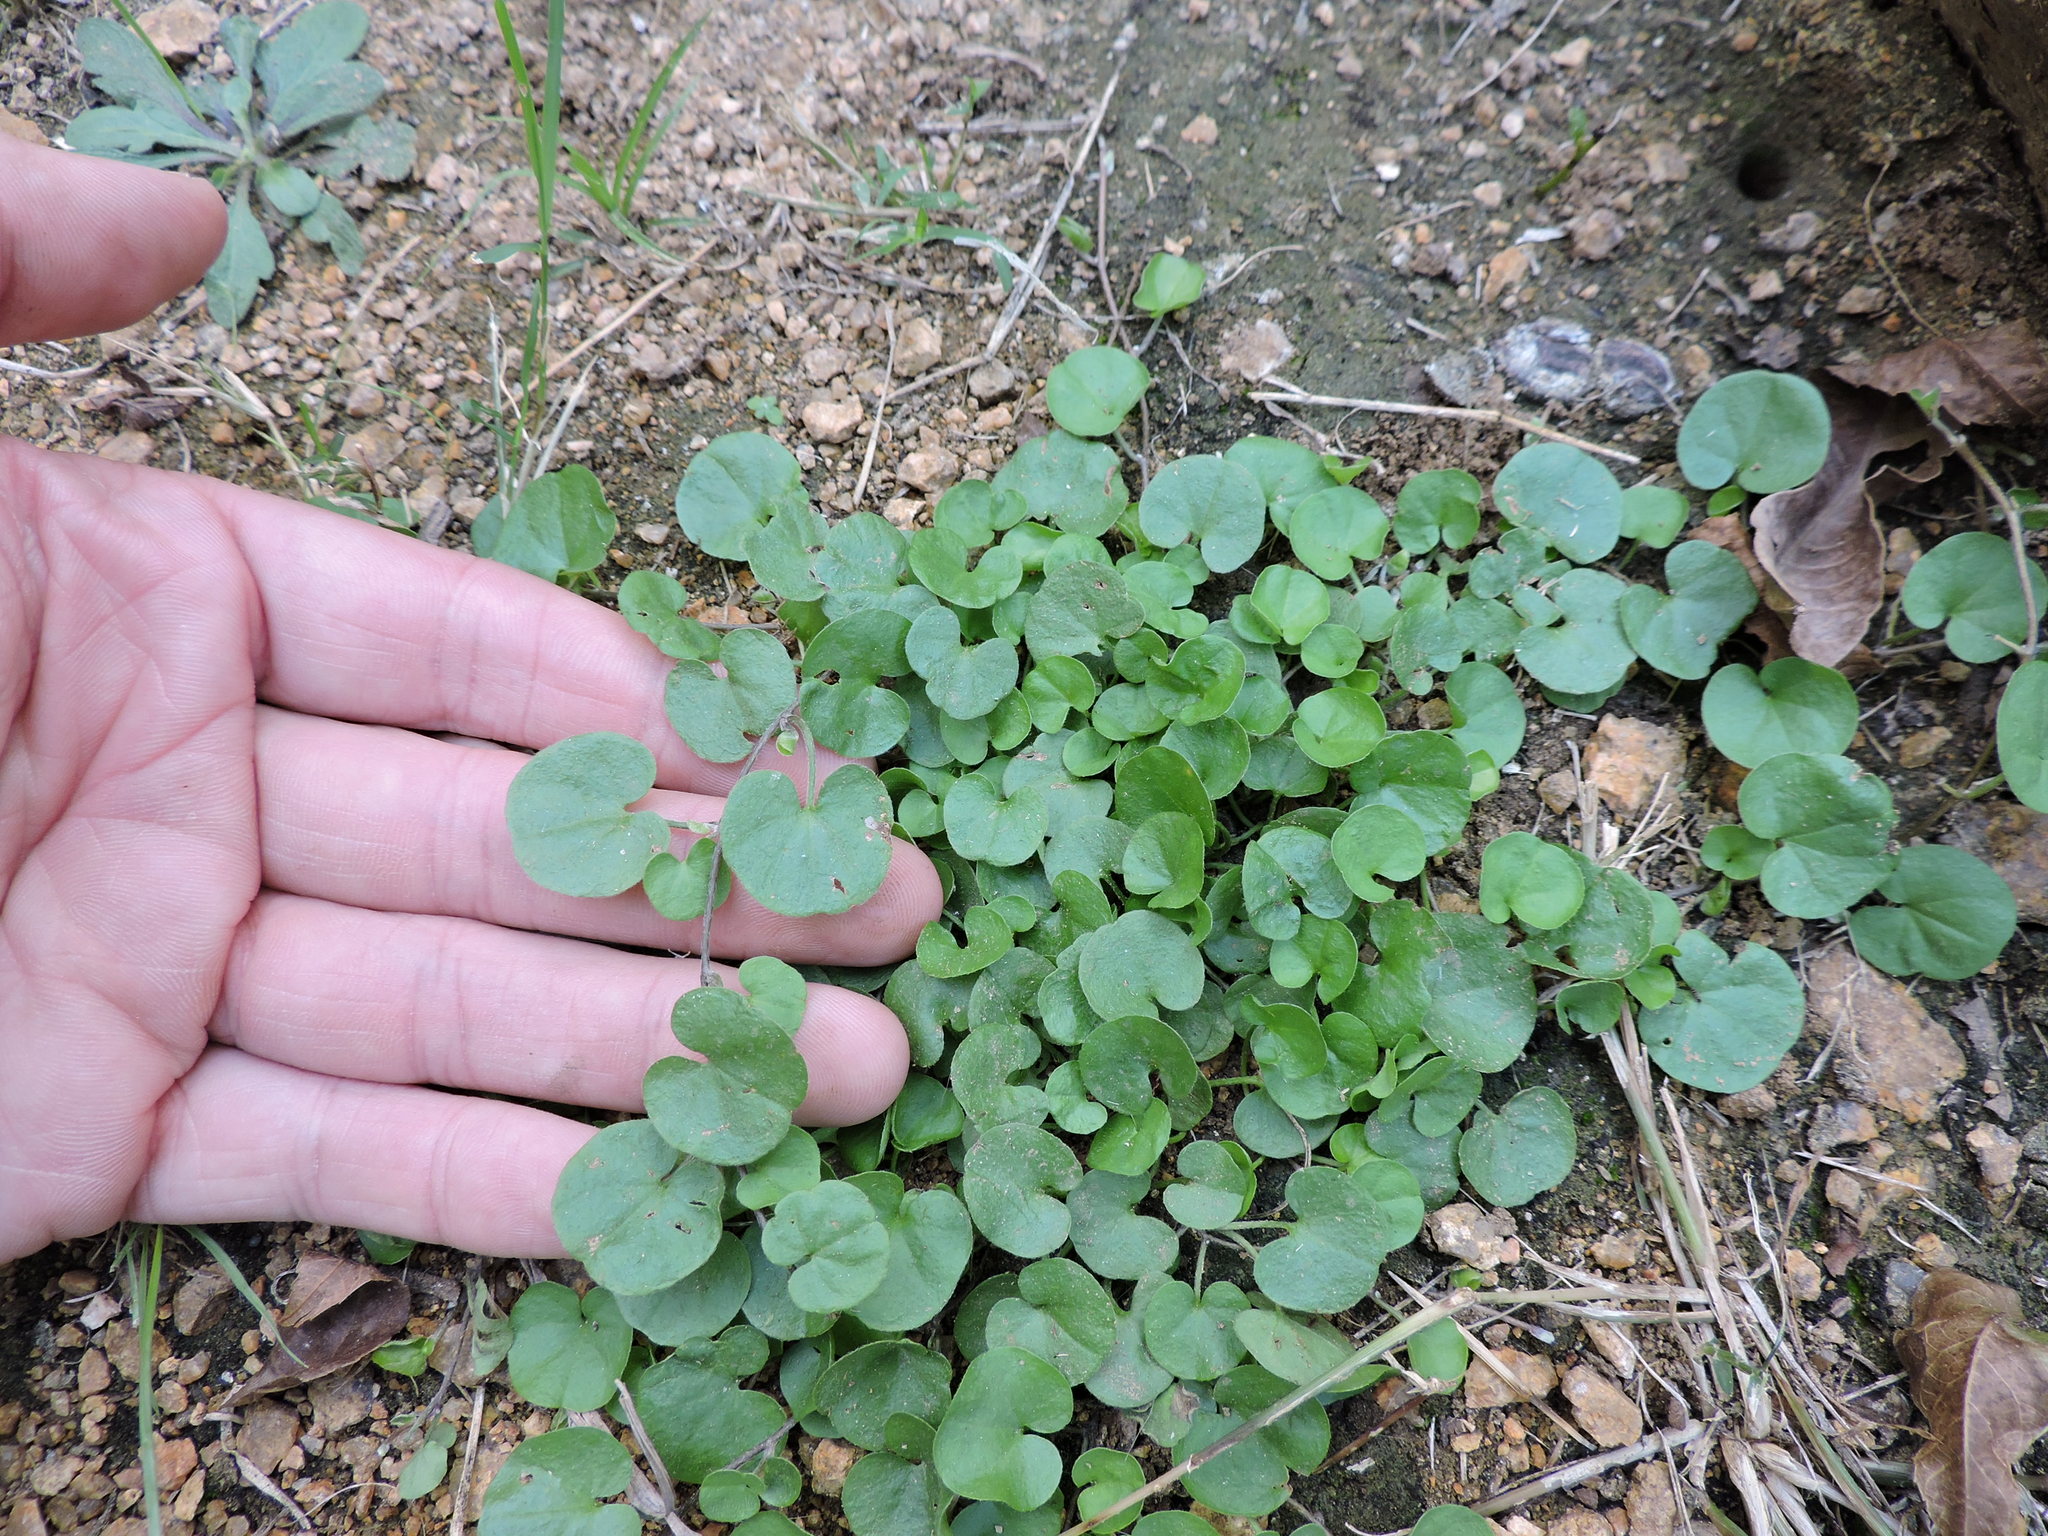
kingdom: Plantae
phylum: Tracheophyta
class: Magnoliopsida
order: Solanales
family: Convolvulaceae
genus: Dichondra
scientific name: Dichondra carolinensis
